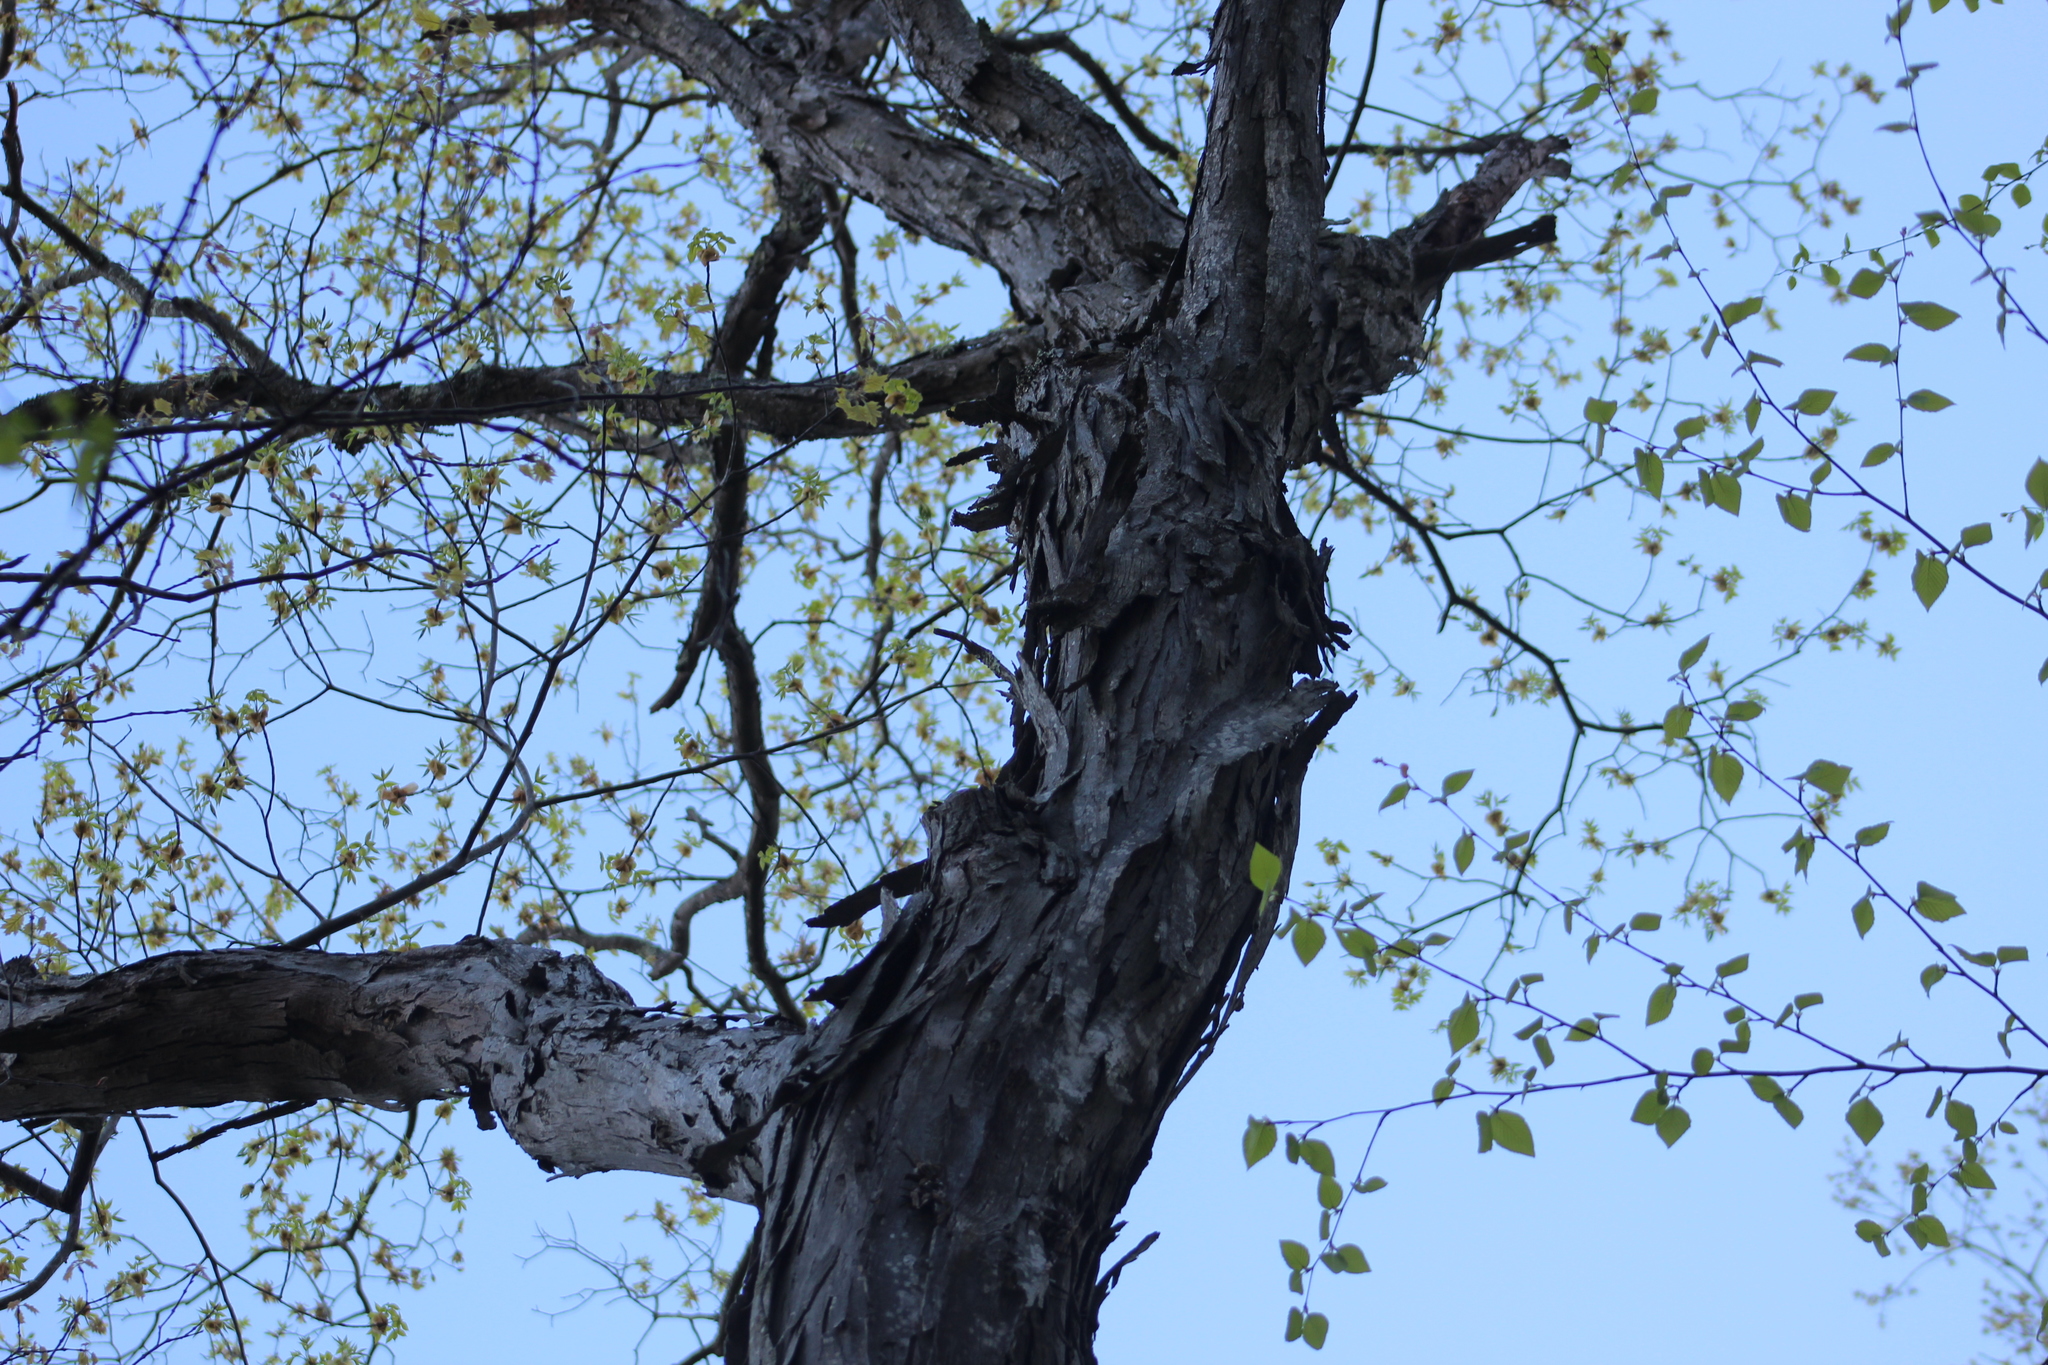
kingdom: Plantae
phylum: Tracheophyta
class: Magnoliopsida
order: Fagales
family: Juglandaceae
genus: Carya
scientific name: Carya ovata
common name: Shagbark hickory
